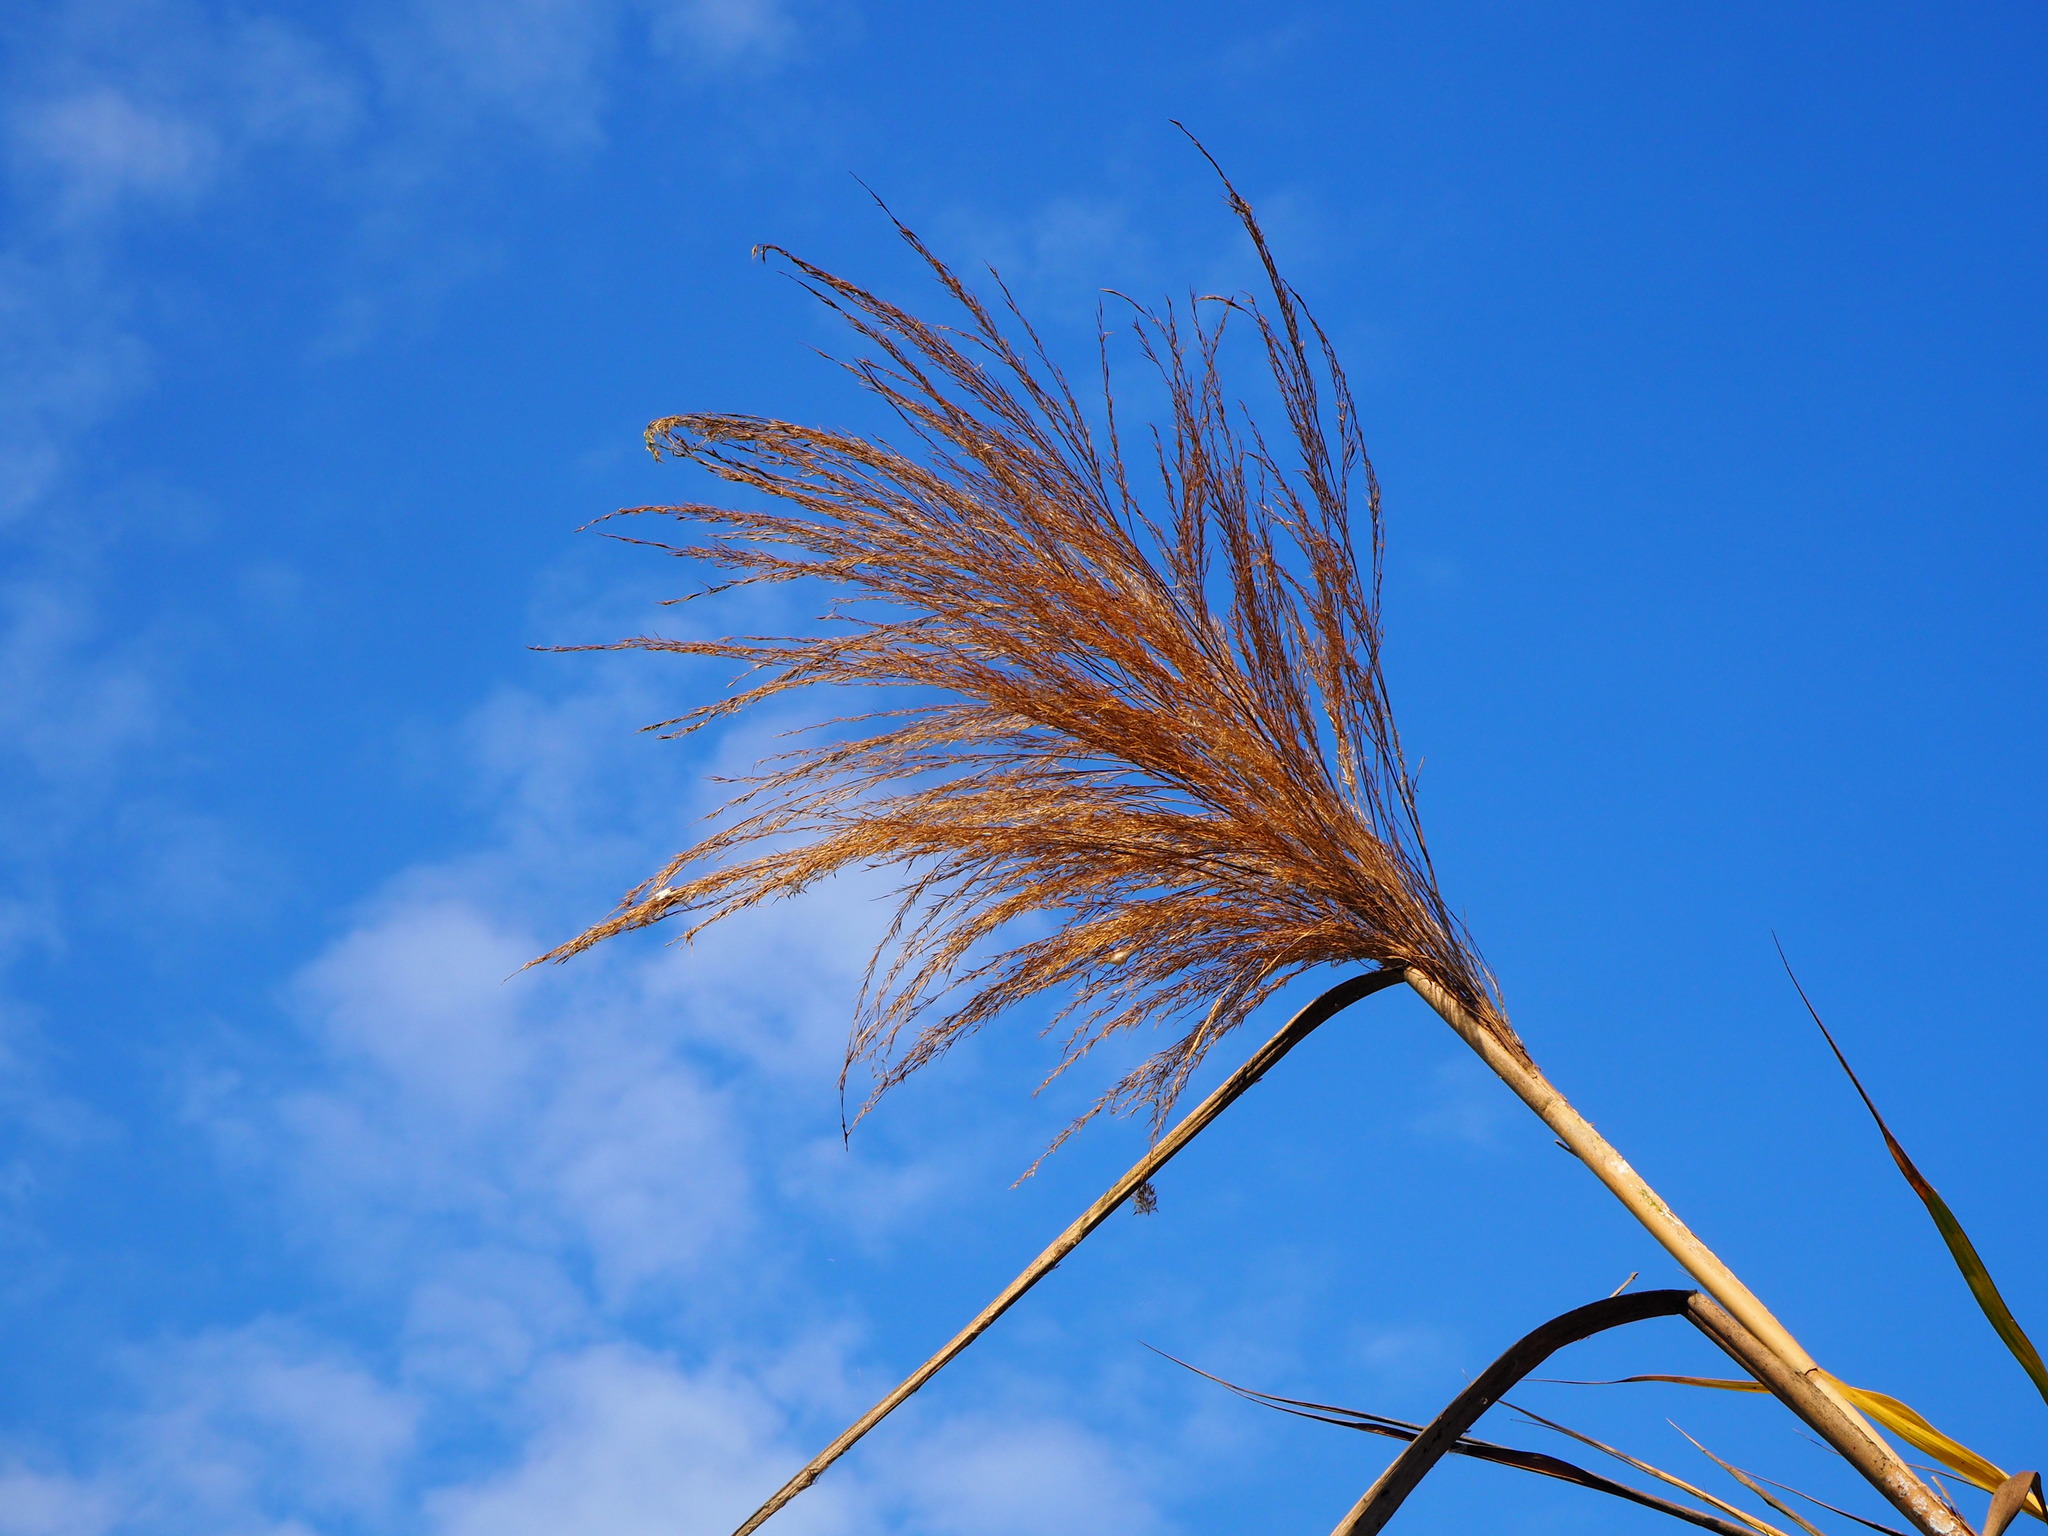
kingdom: Plantae
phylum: Tracheophyta
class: Liliopsida
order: Poales
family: Poaceae
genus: Phragmites
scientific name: Phragmites karka
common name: Tropical reed
